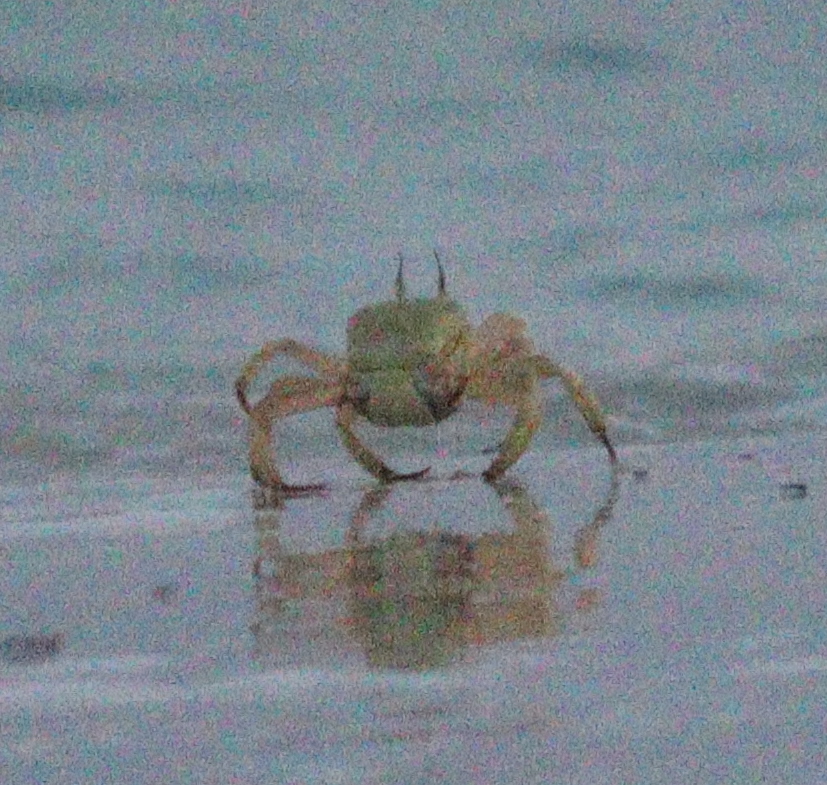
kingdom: Animalia
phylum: Arthropoda
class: Malacostraca
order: Decapoda
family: Ocypodidae
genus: Ocypode
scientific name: Ocypode saratan
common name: Red sea ghost crab
